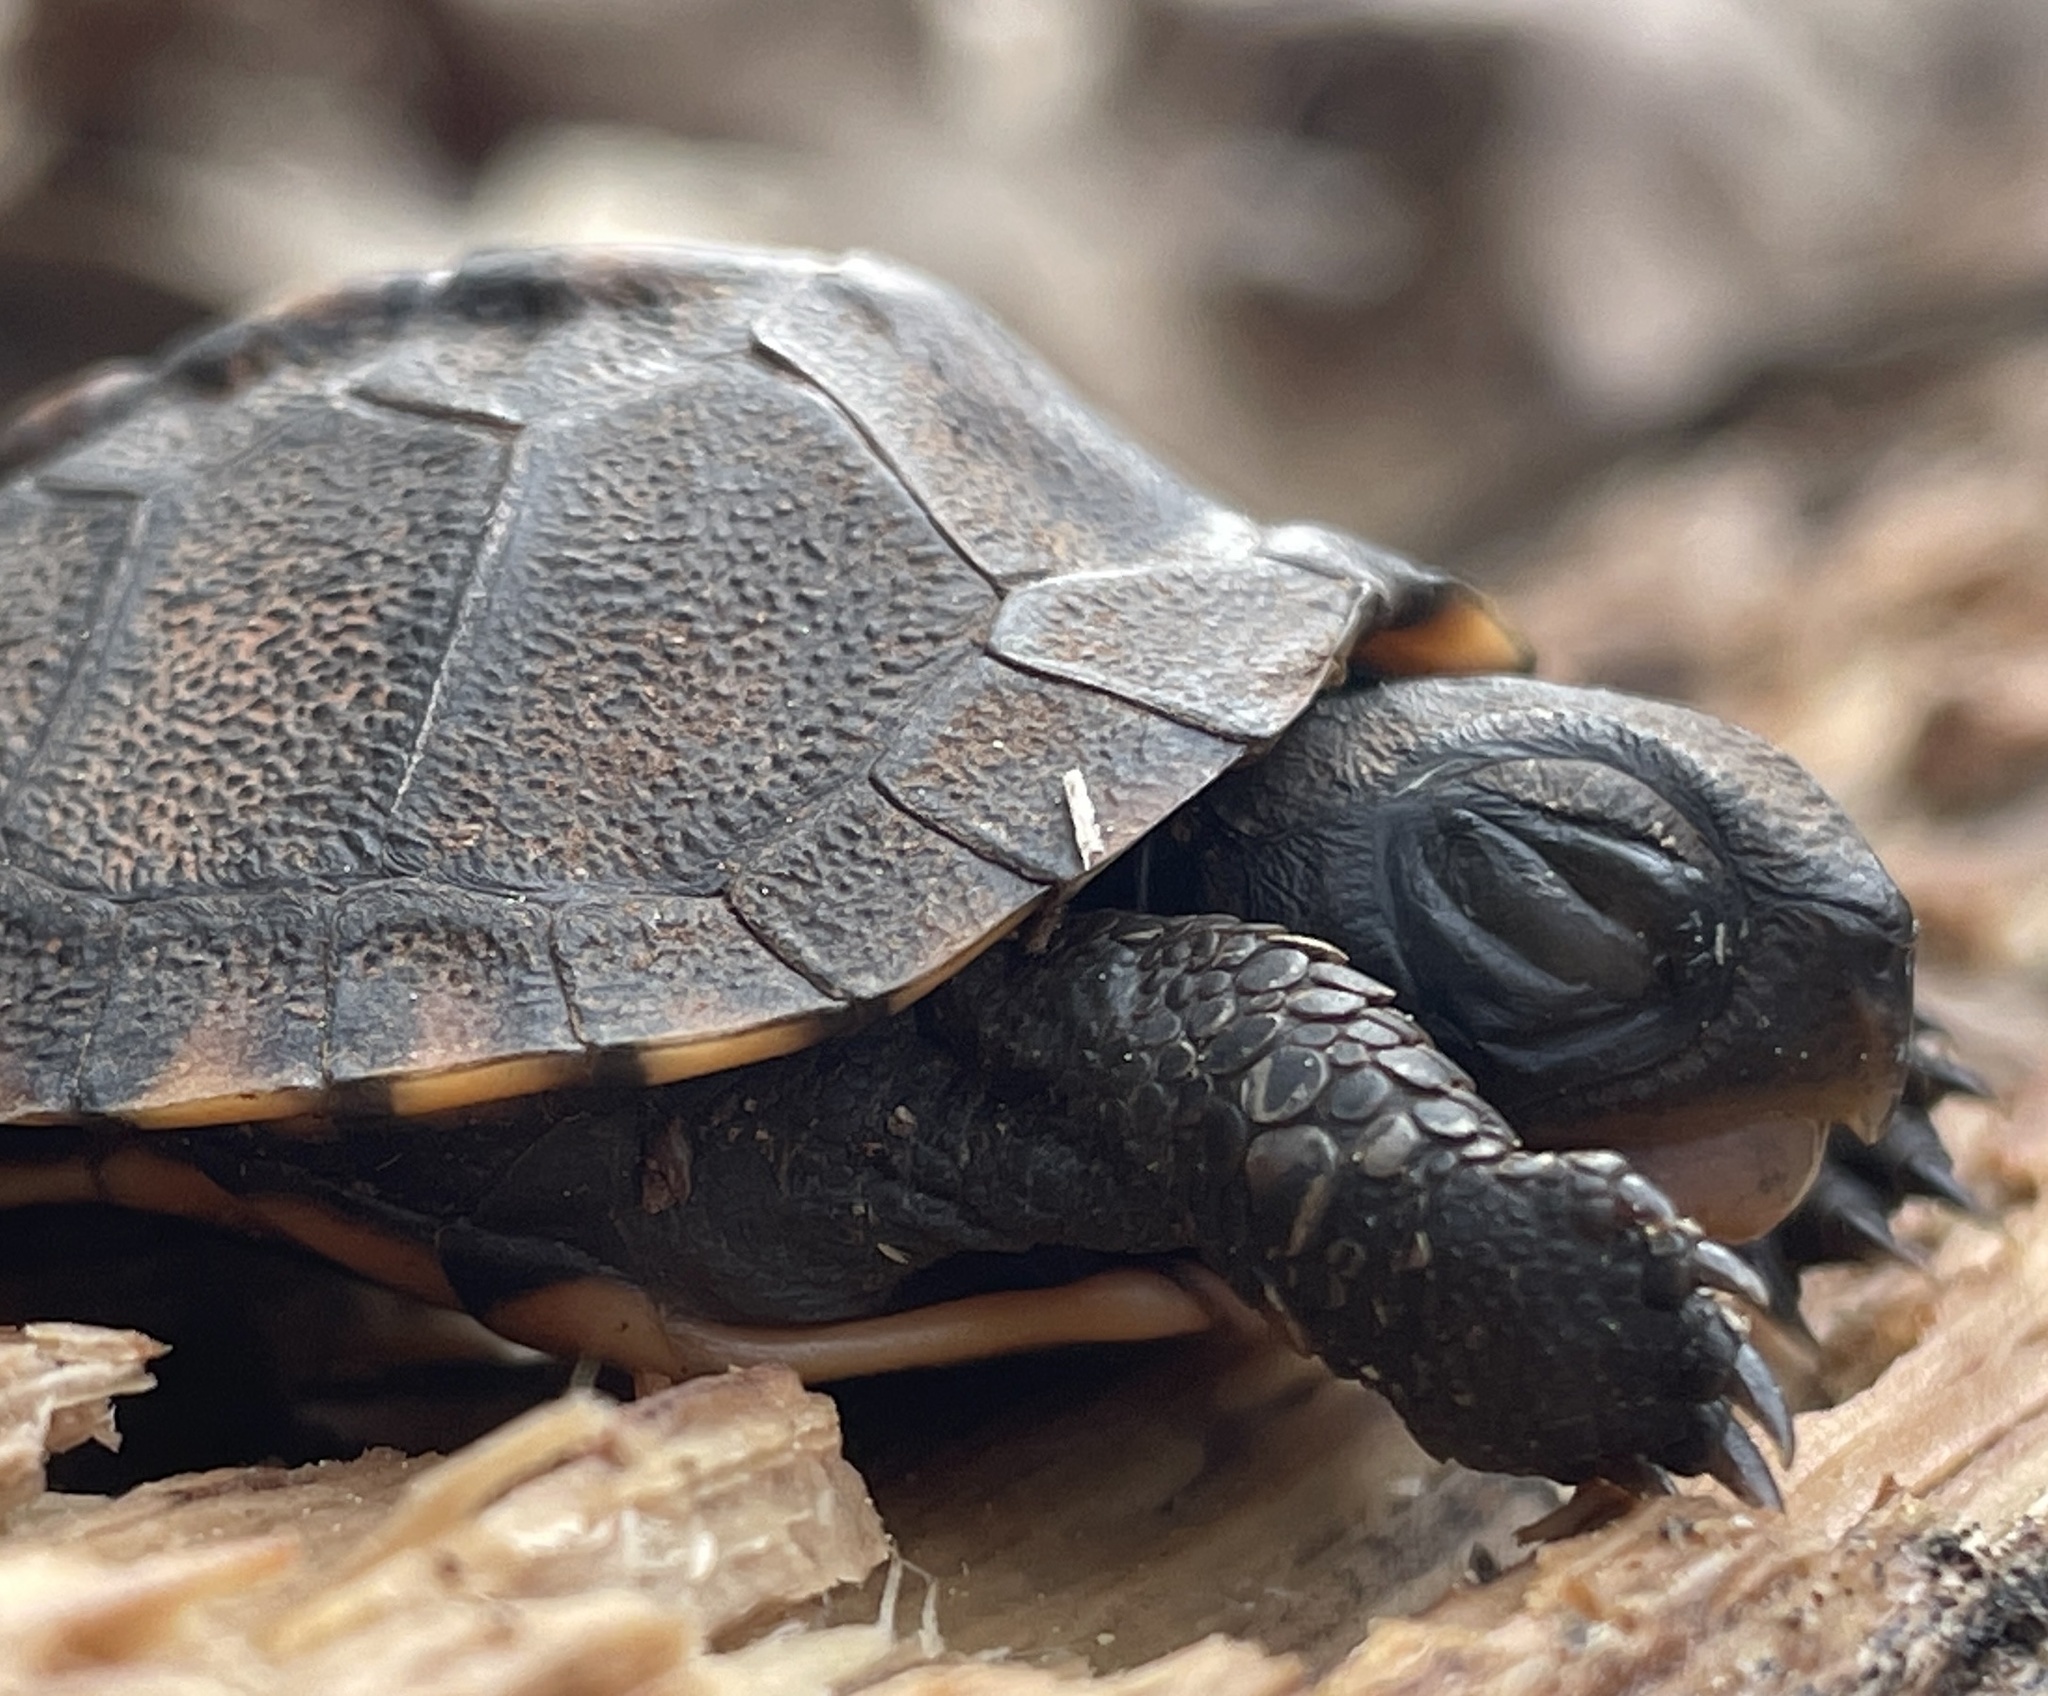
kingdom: Animalia
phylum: Chordata
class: Testudines
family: Emydidae
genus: Terrapene
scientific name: Terrapene carolina
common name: Common box turtle
